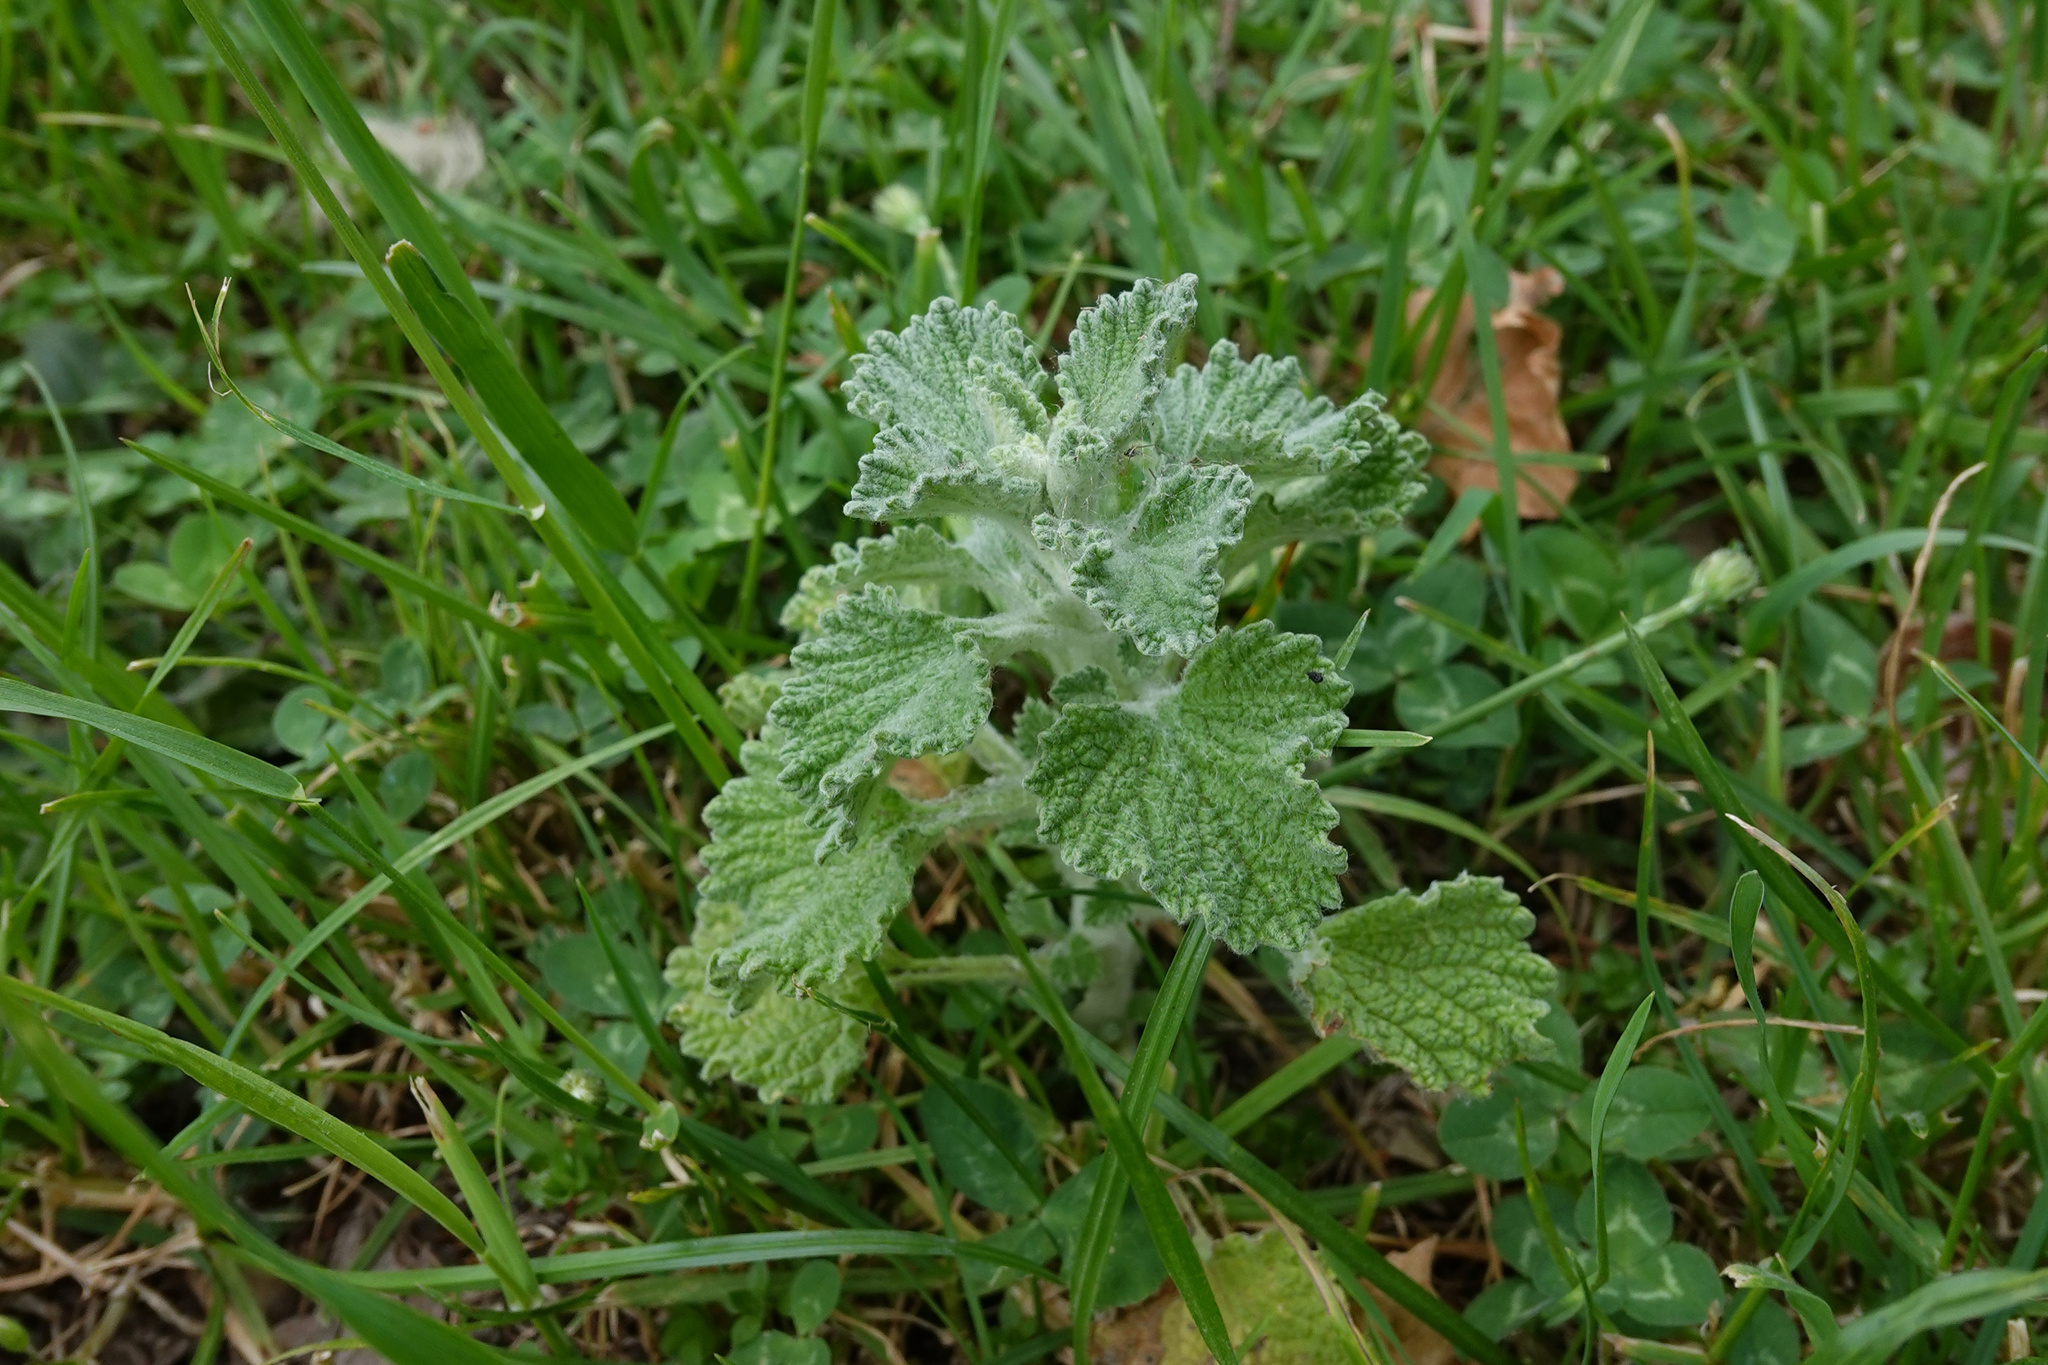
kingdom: Plantae
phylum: Tracheophyta
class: Magnoliopsida
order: Lamiales
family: Lamiaceae
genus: Marrubium
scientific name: Marrubium vulgare
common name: Horehound
